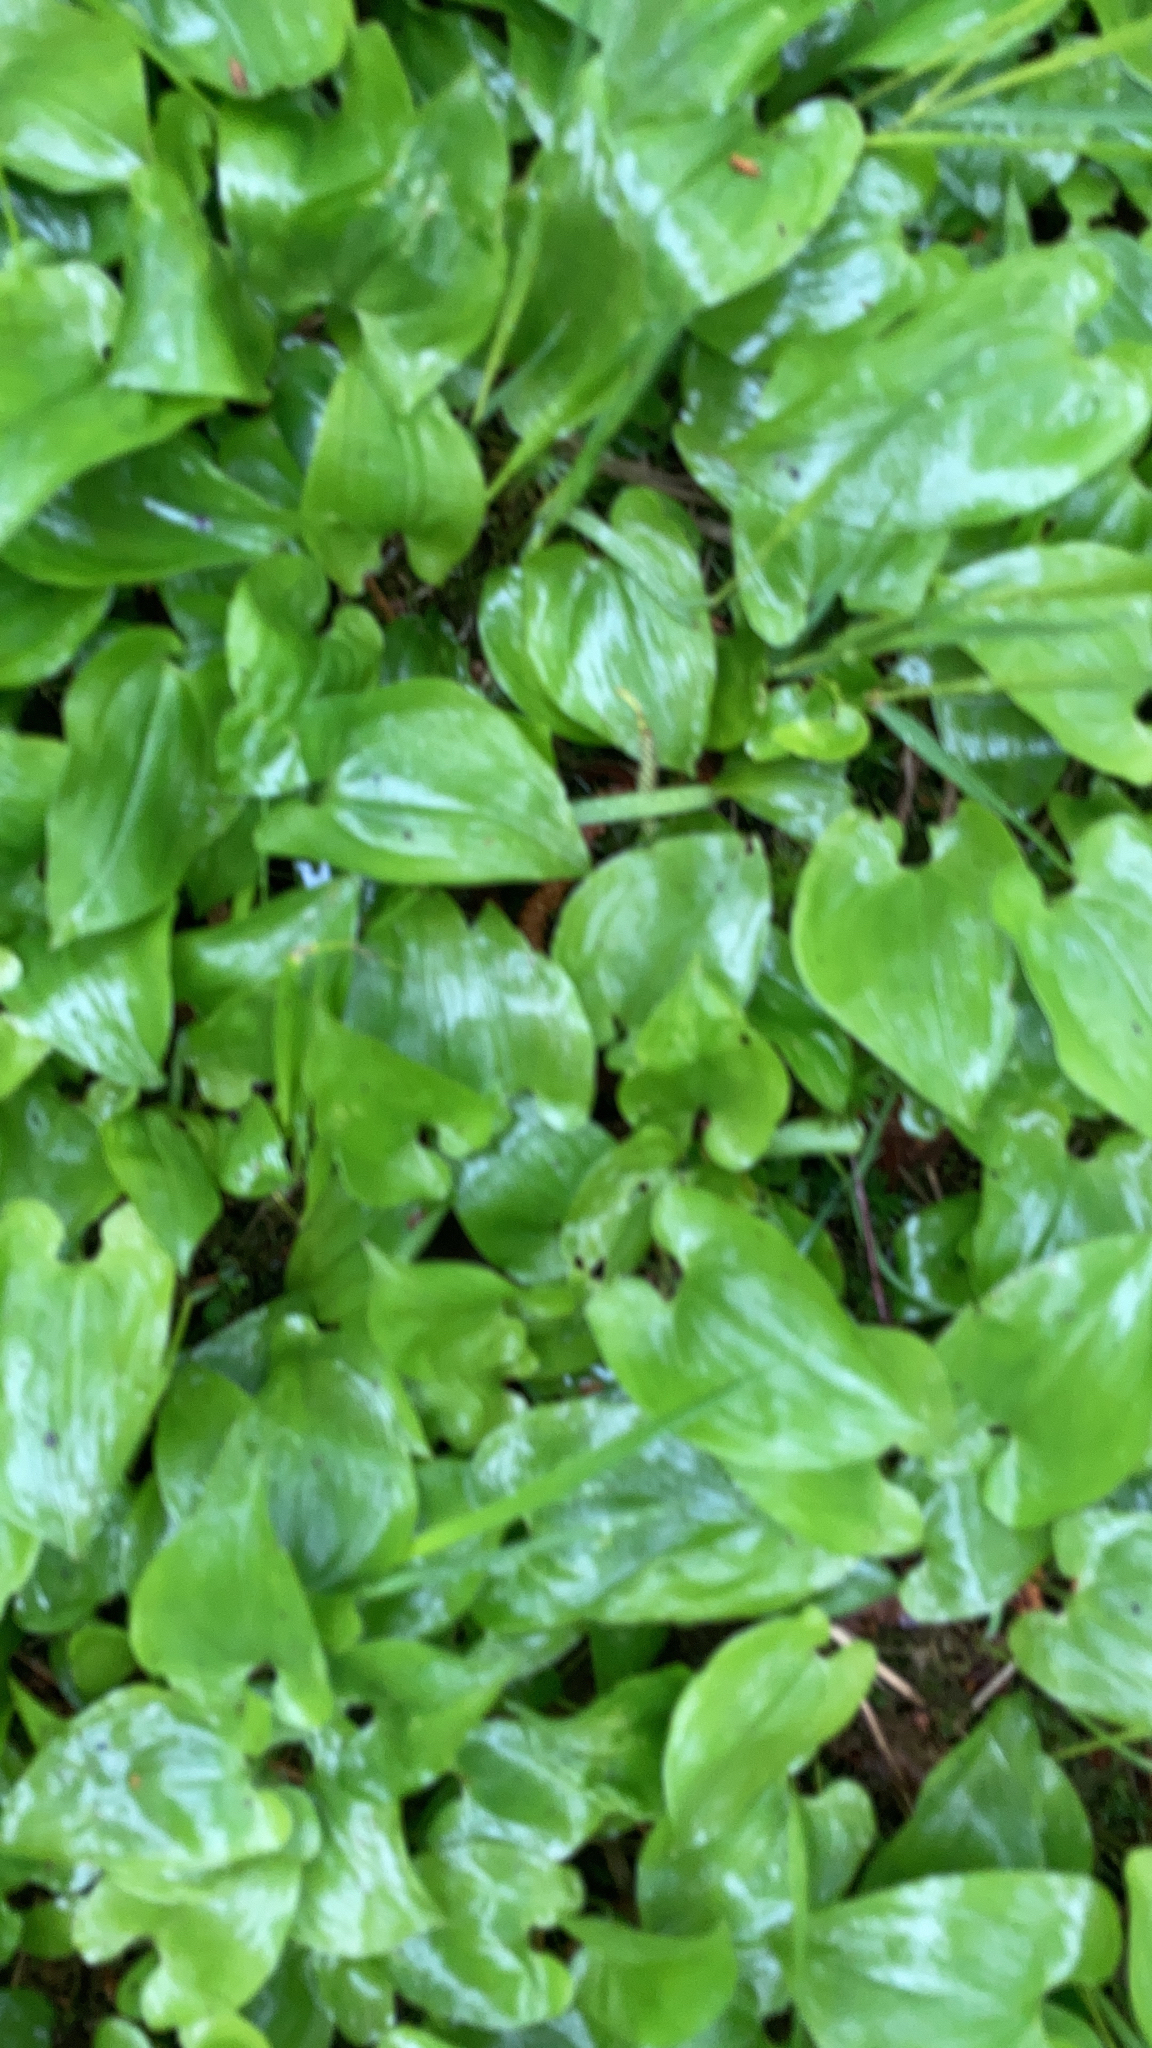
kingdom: Plantae
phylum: Tracheophyta
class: Liliopsida
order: Asparagales
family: Asparagaceae
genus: Maianthemum
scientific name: Maianthemum bifolium
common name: May lily
